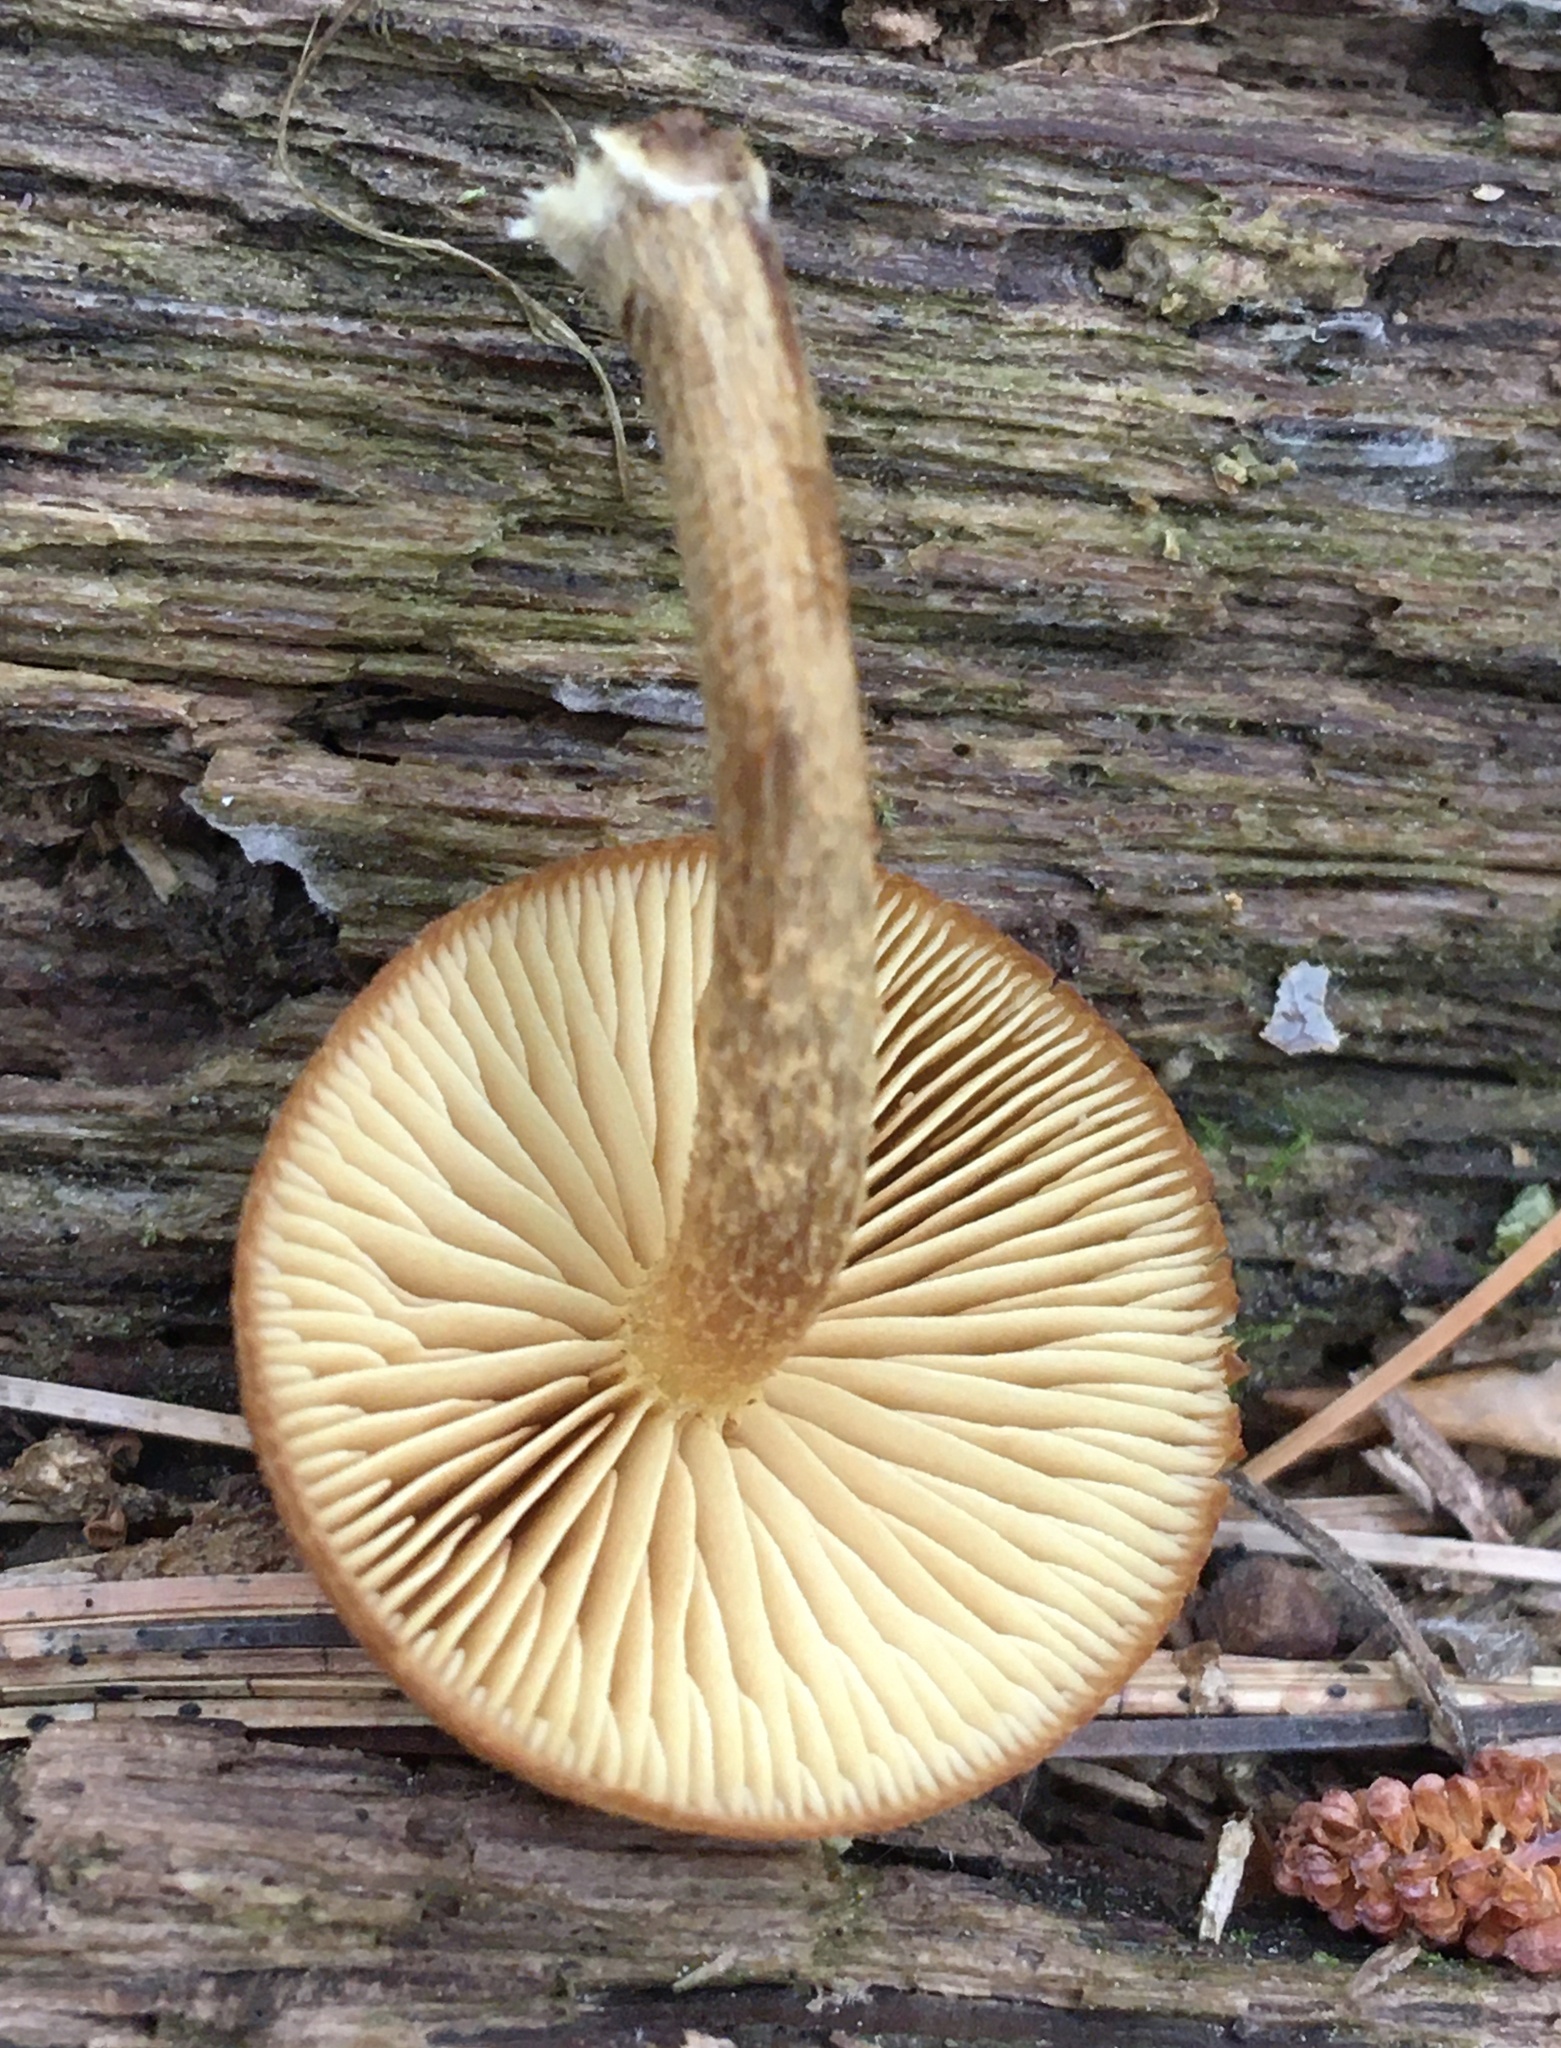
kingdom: Fungi
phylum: Basidiomycota
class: Agaricomycetes
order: Agaricales
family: Strophariaceae
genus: Pholiota
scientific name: Pholiota granulosa
